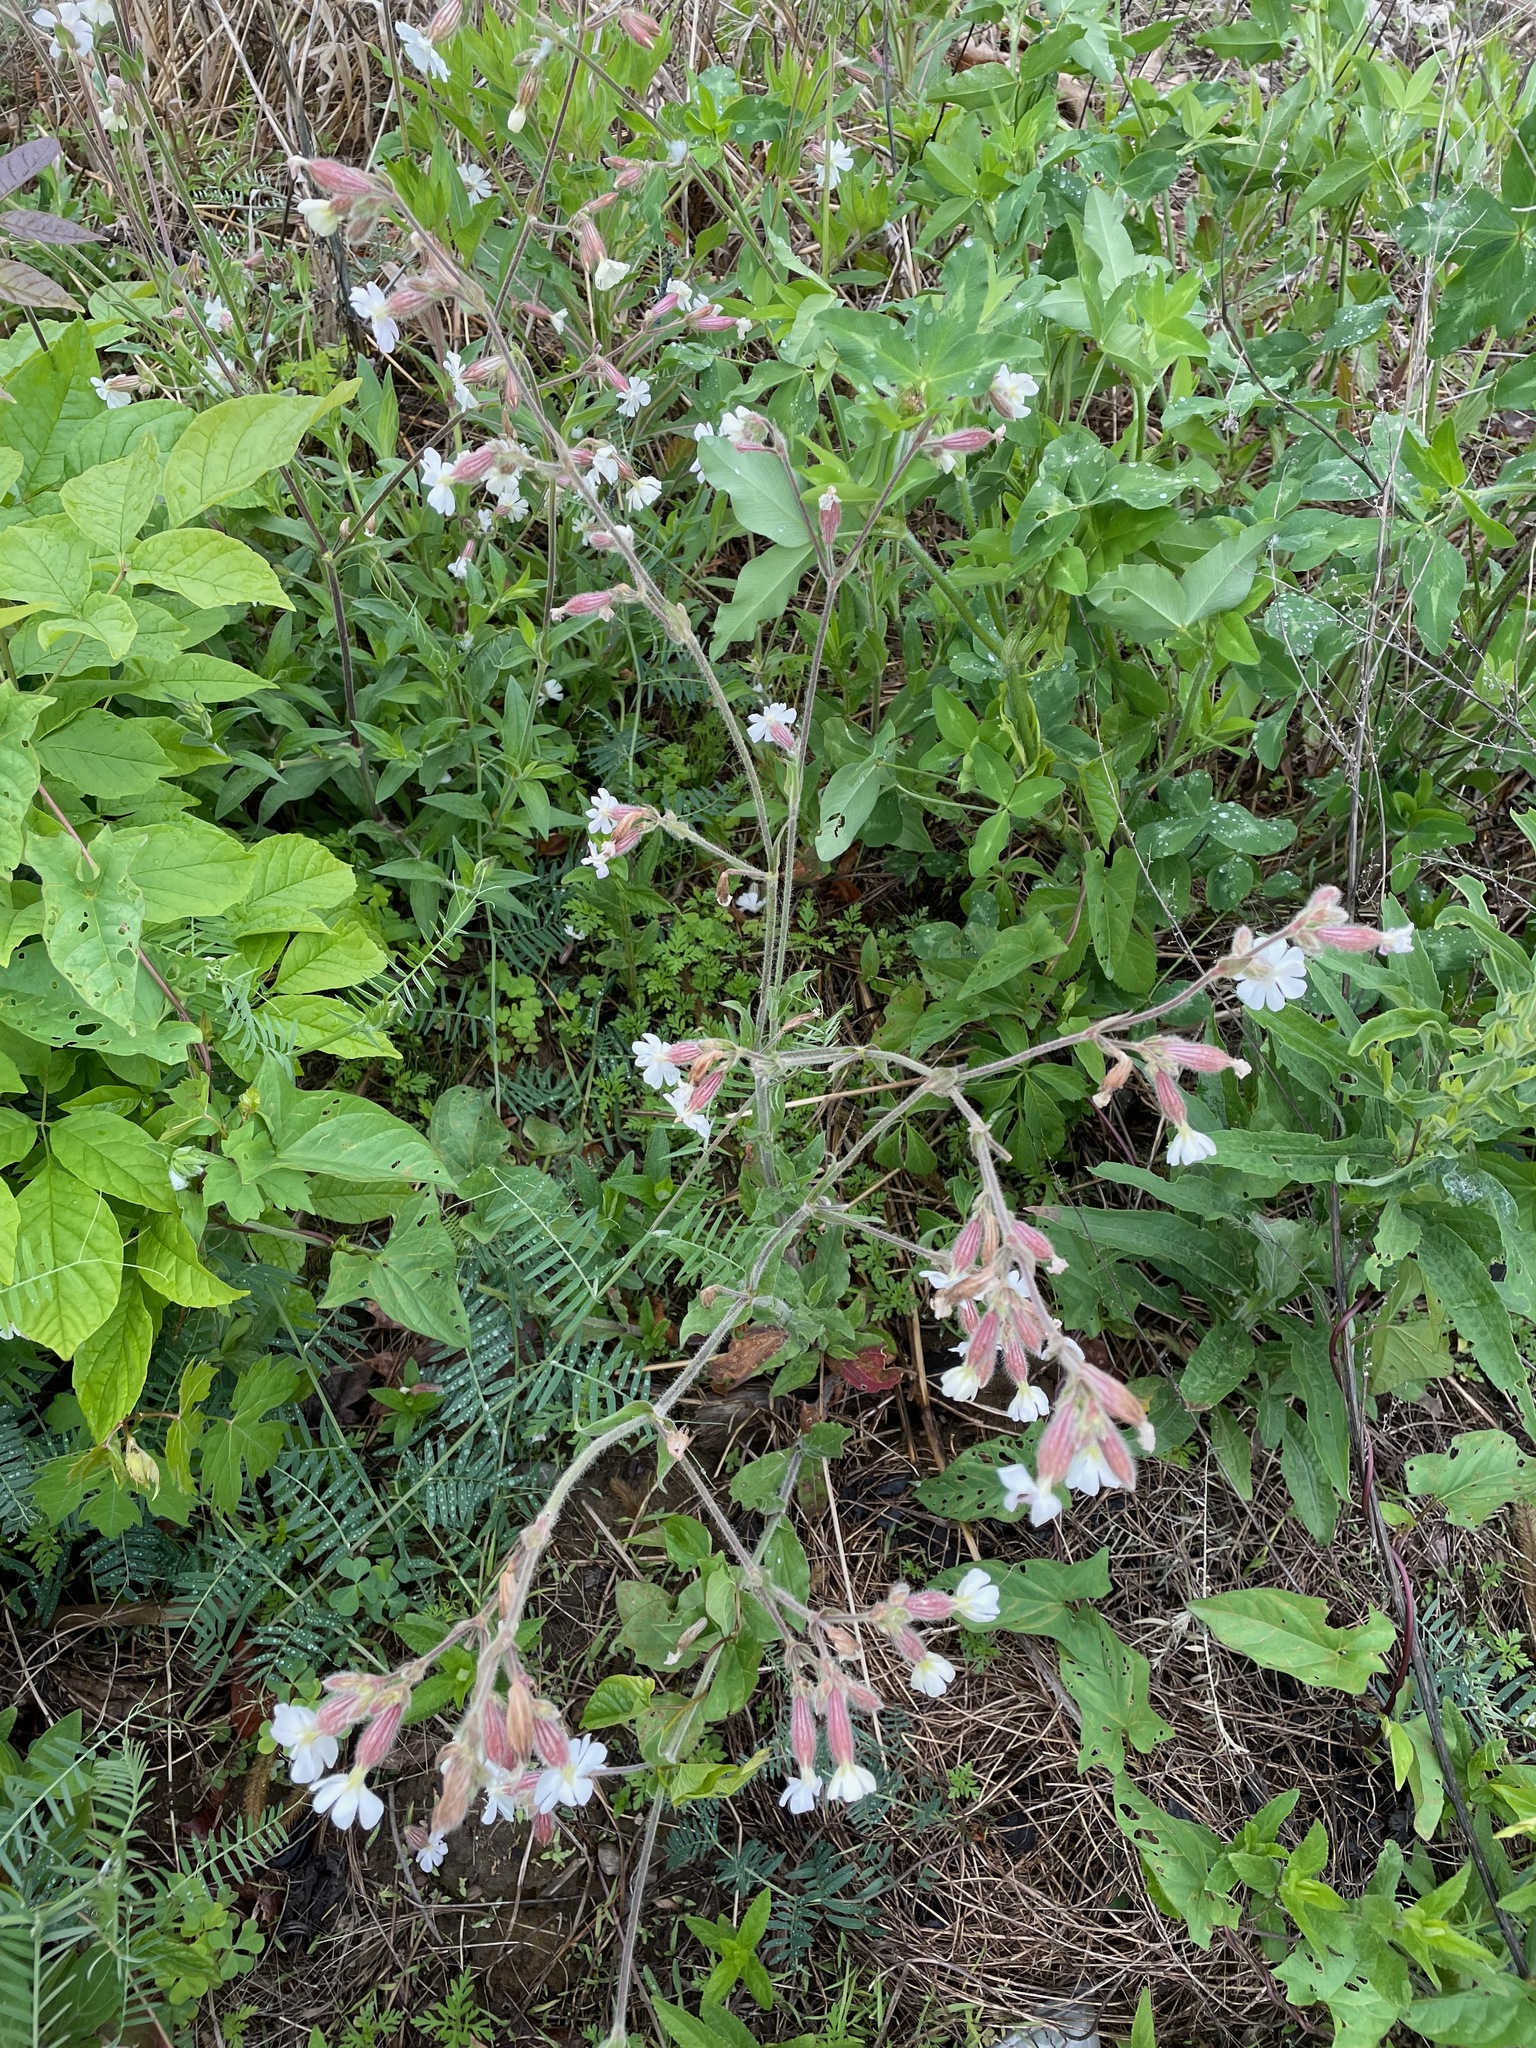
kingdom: Plantae
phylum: Tracheophyta
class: Magnoliopsida
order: Caryophyllales
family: Caryophyllaceae
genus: Silene
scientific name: Silene latifolia
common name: White campion
